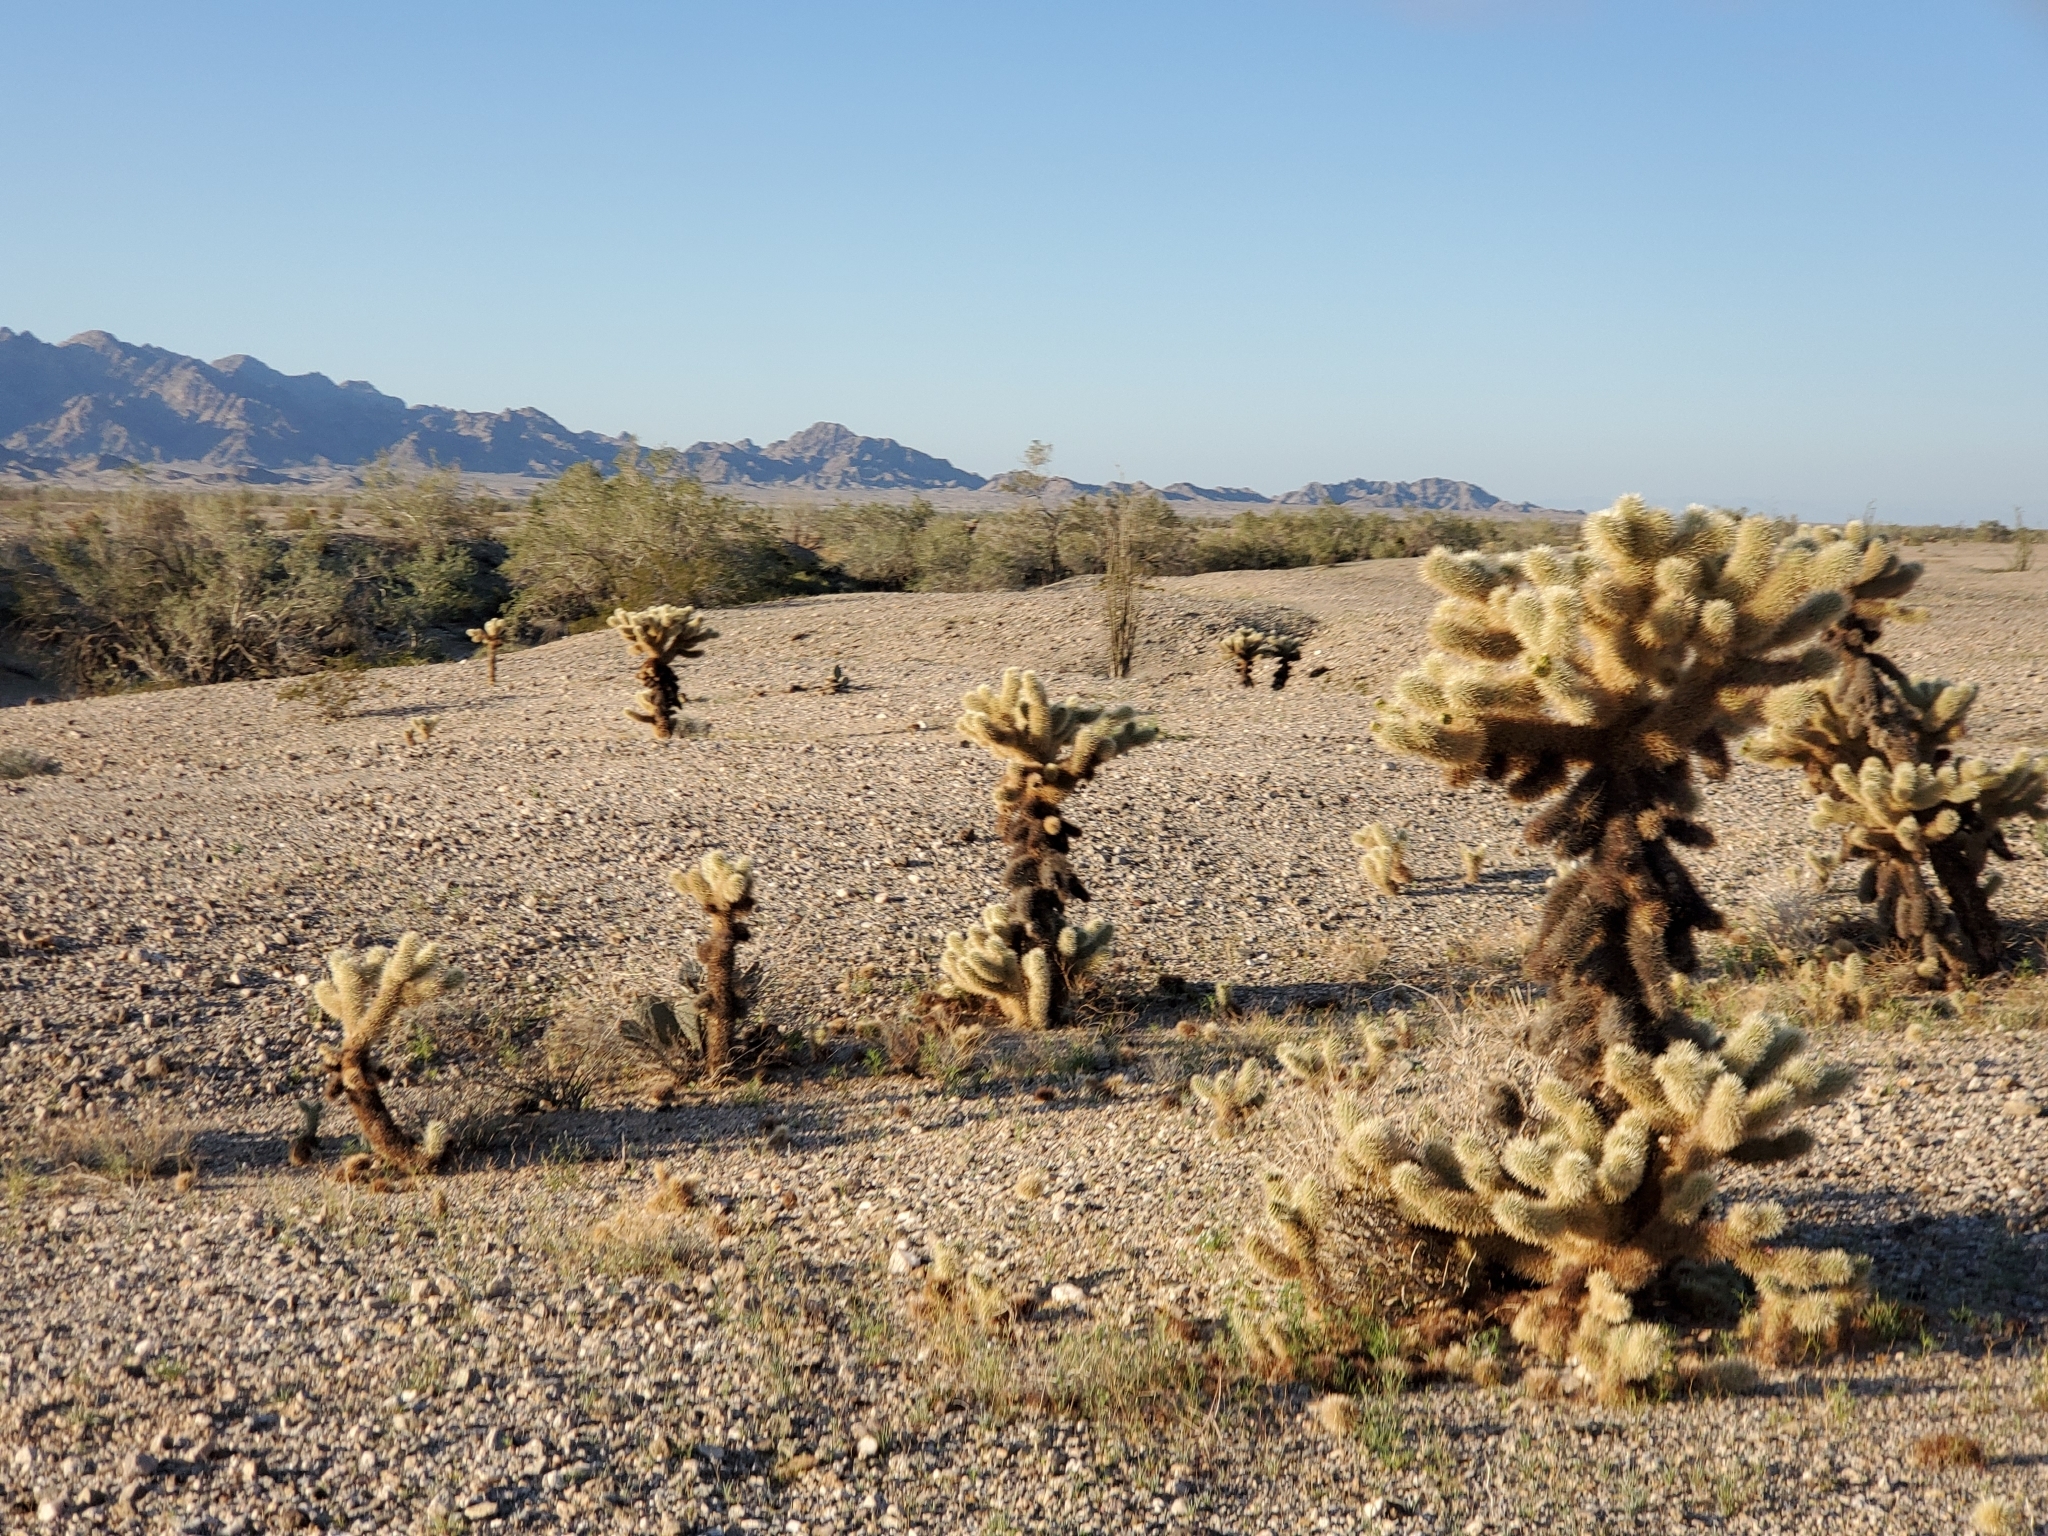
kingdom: Plantae
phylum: Tracheophyta
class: Magnoliopsida
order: Caryophyllales
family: Cactaceae
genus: Cylindropuntia
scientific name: Cylindropuntia fosbergii
